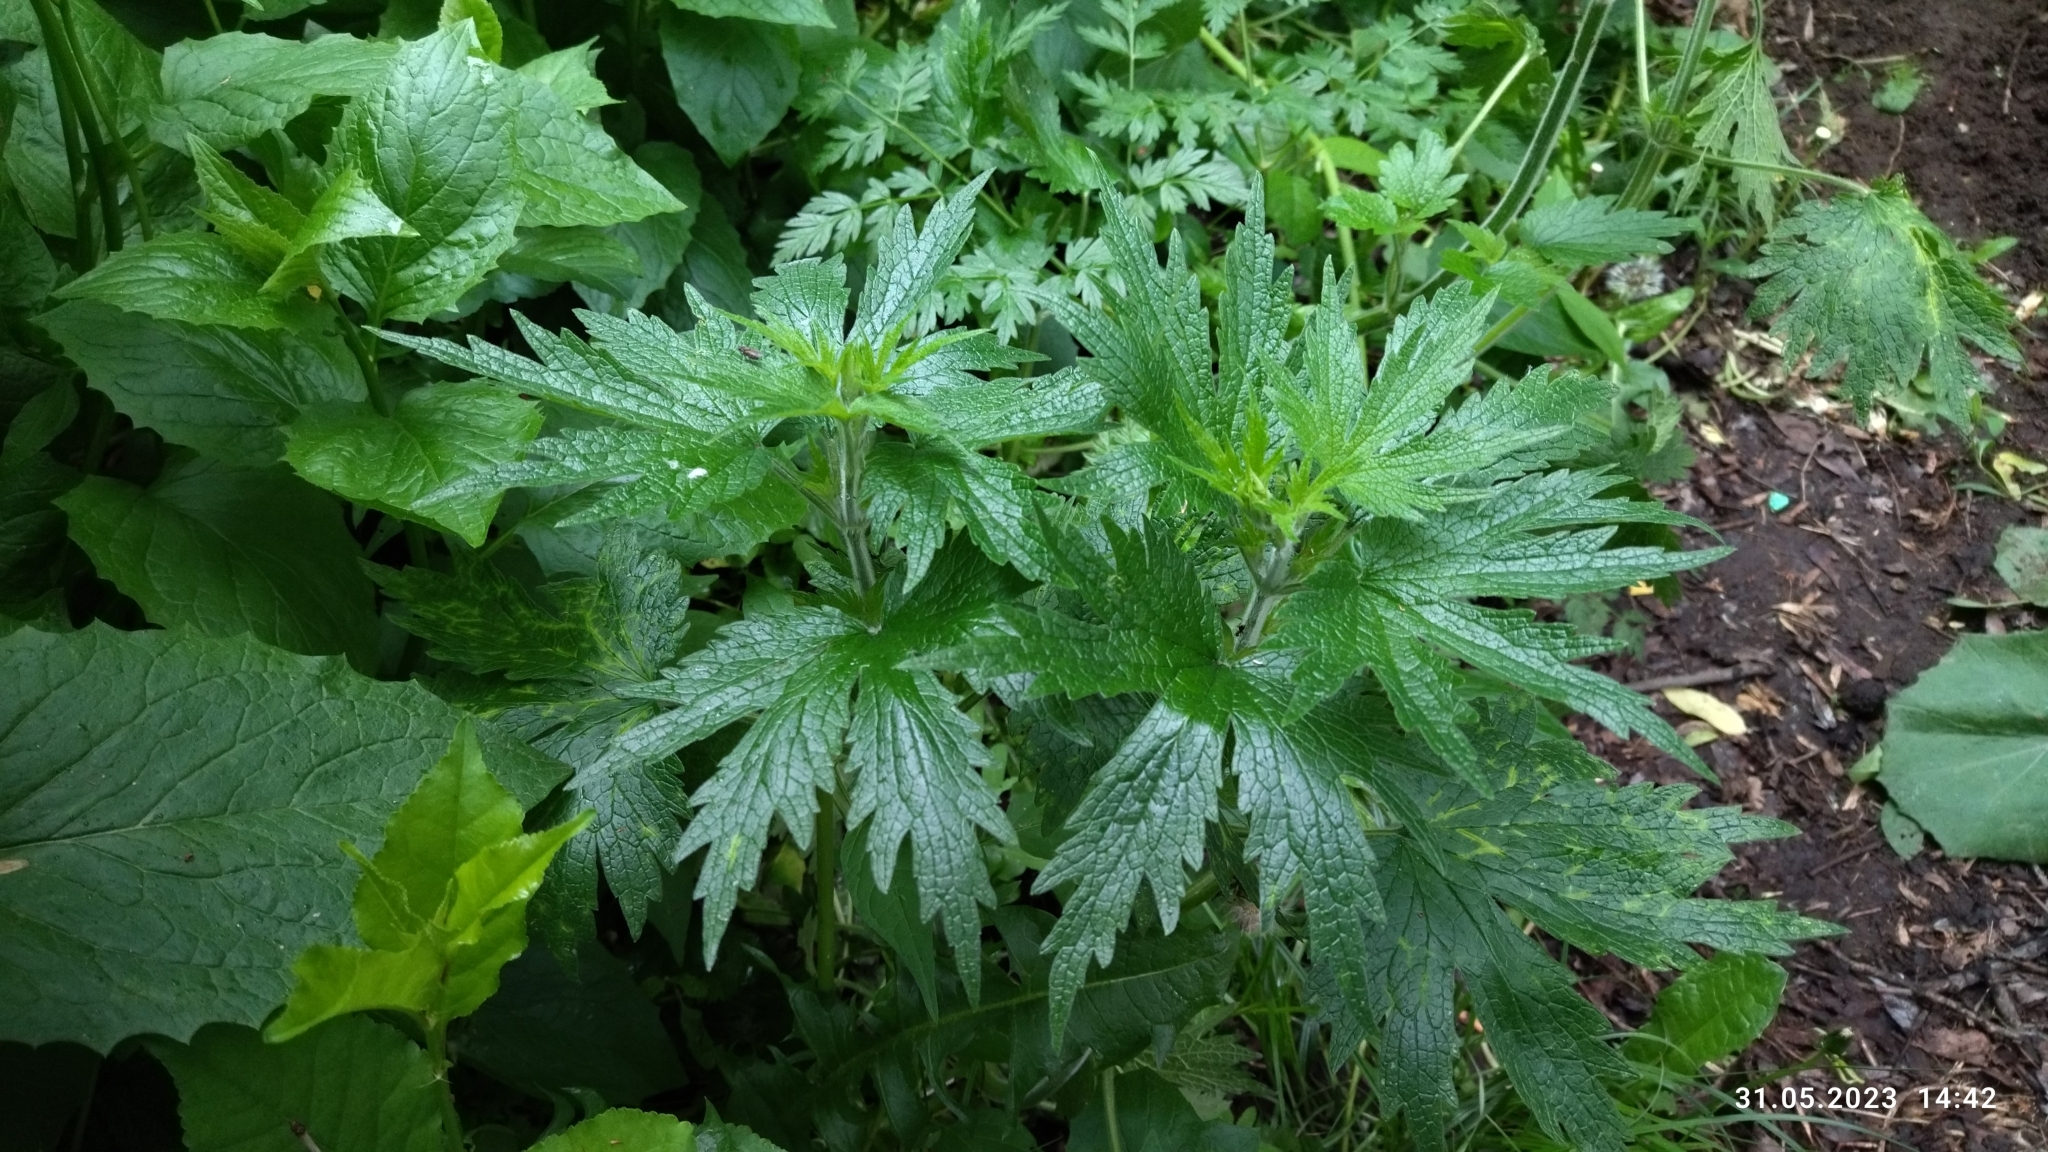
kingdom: Plantae
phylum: Tracheophyta
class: Magnoliopsida
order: Lamiales
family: Lamiaceae
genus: Leonurus
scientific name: Leonurus quinquelobatus
